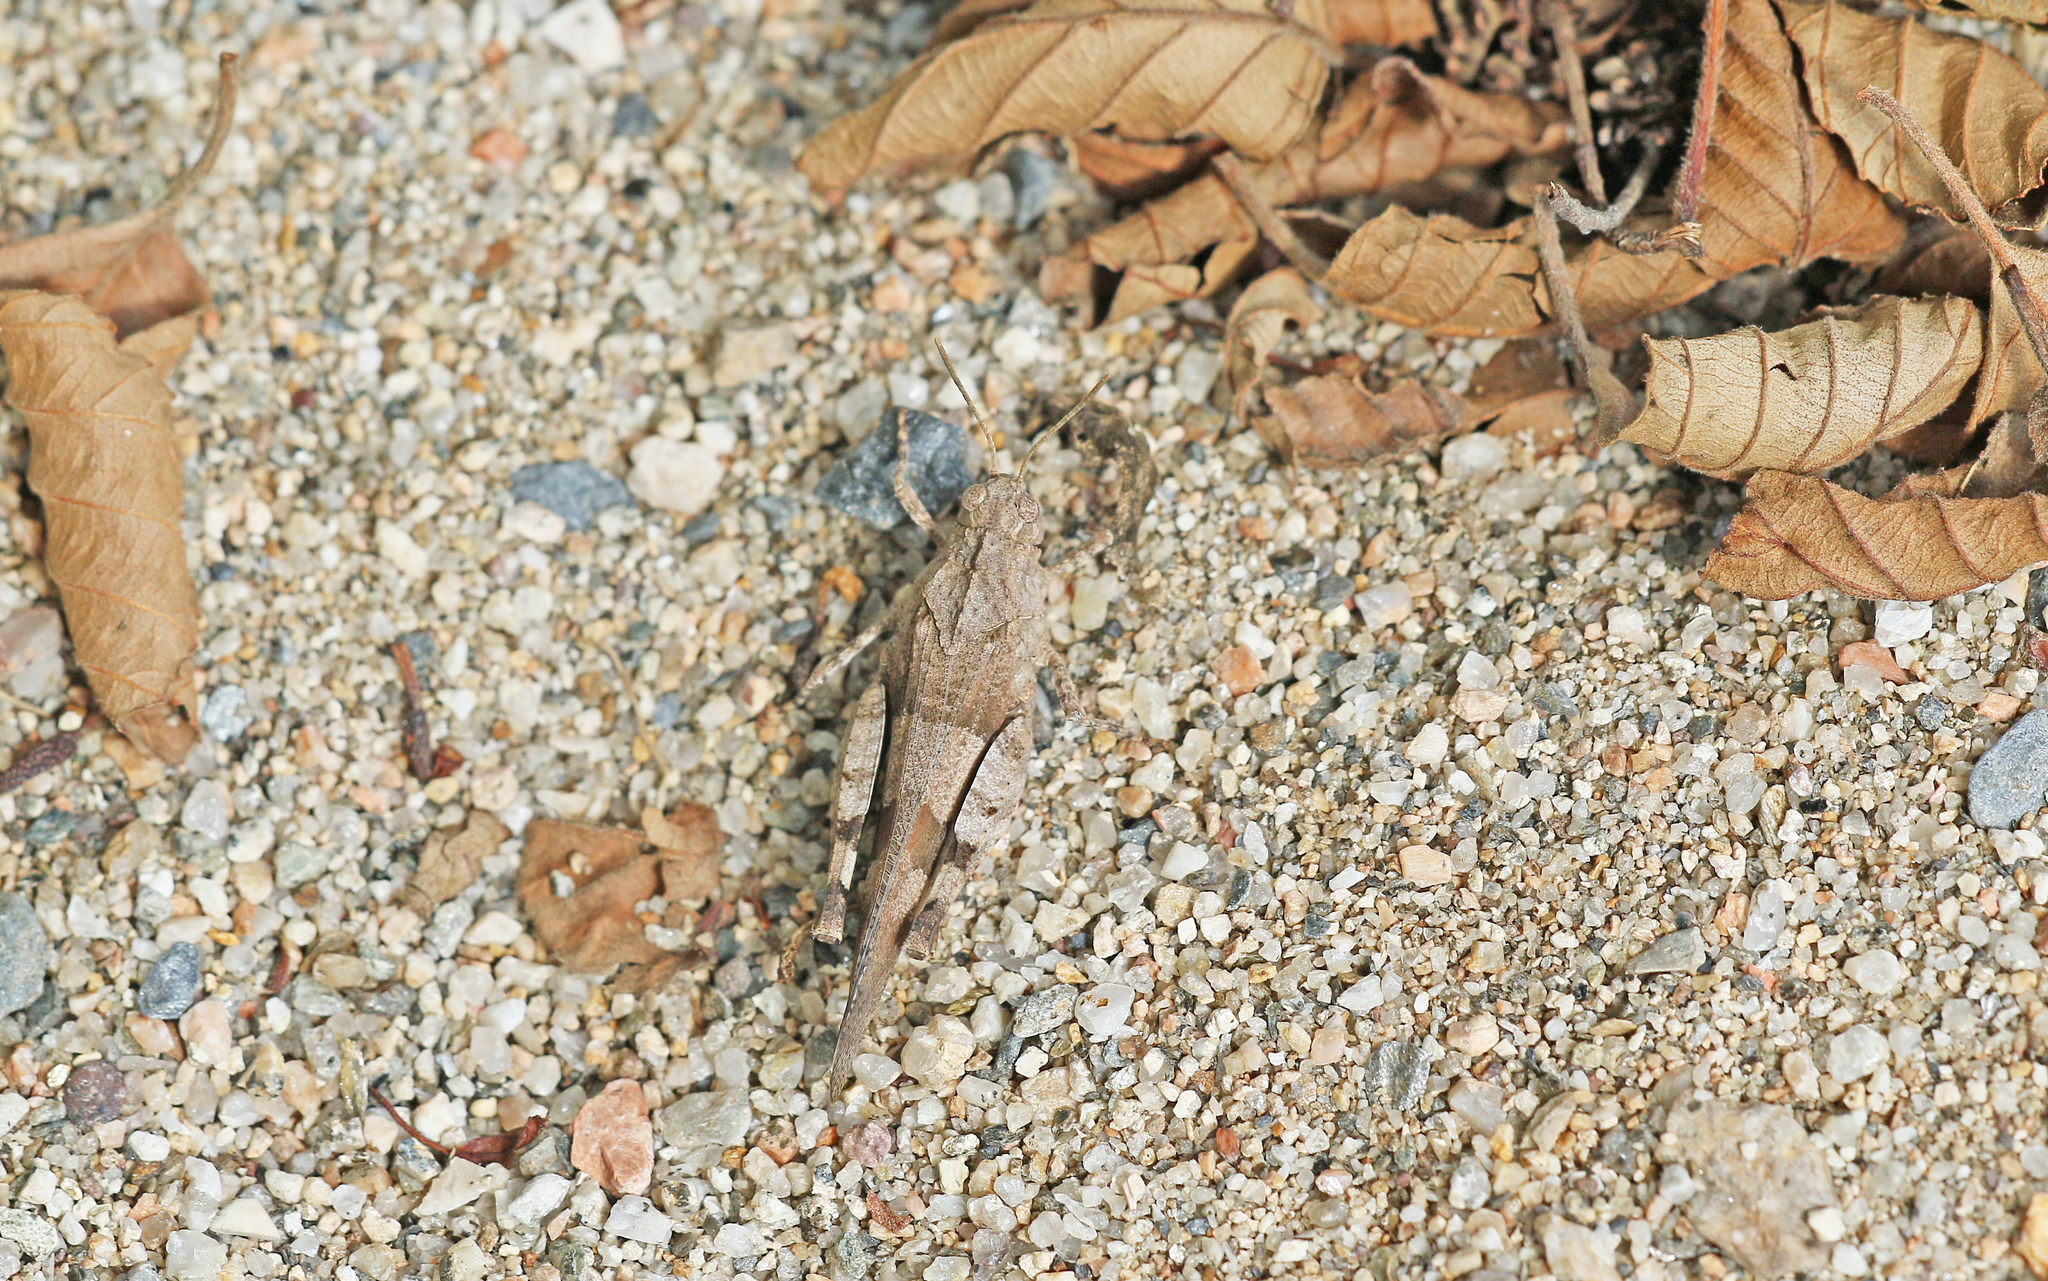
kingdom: Animalia
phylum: Arthropoda
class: Insecta
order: Orthoptera
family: Acrididae
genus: Oedipoda
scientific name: Oedipoda caerulescens
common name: Blue-winged grasshopper
